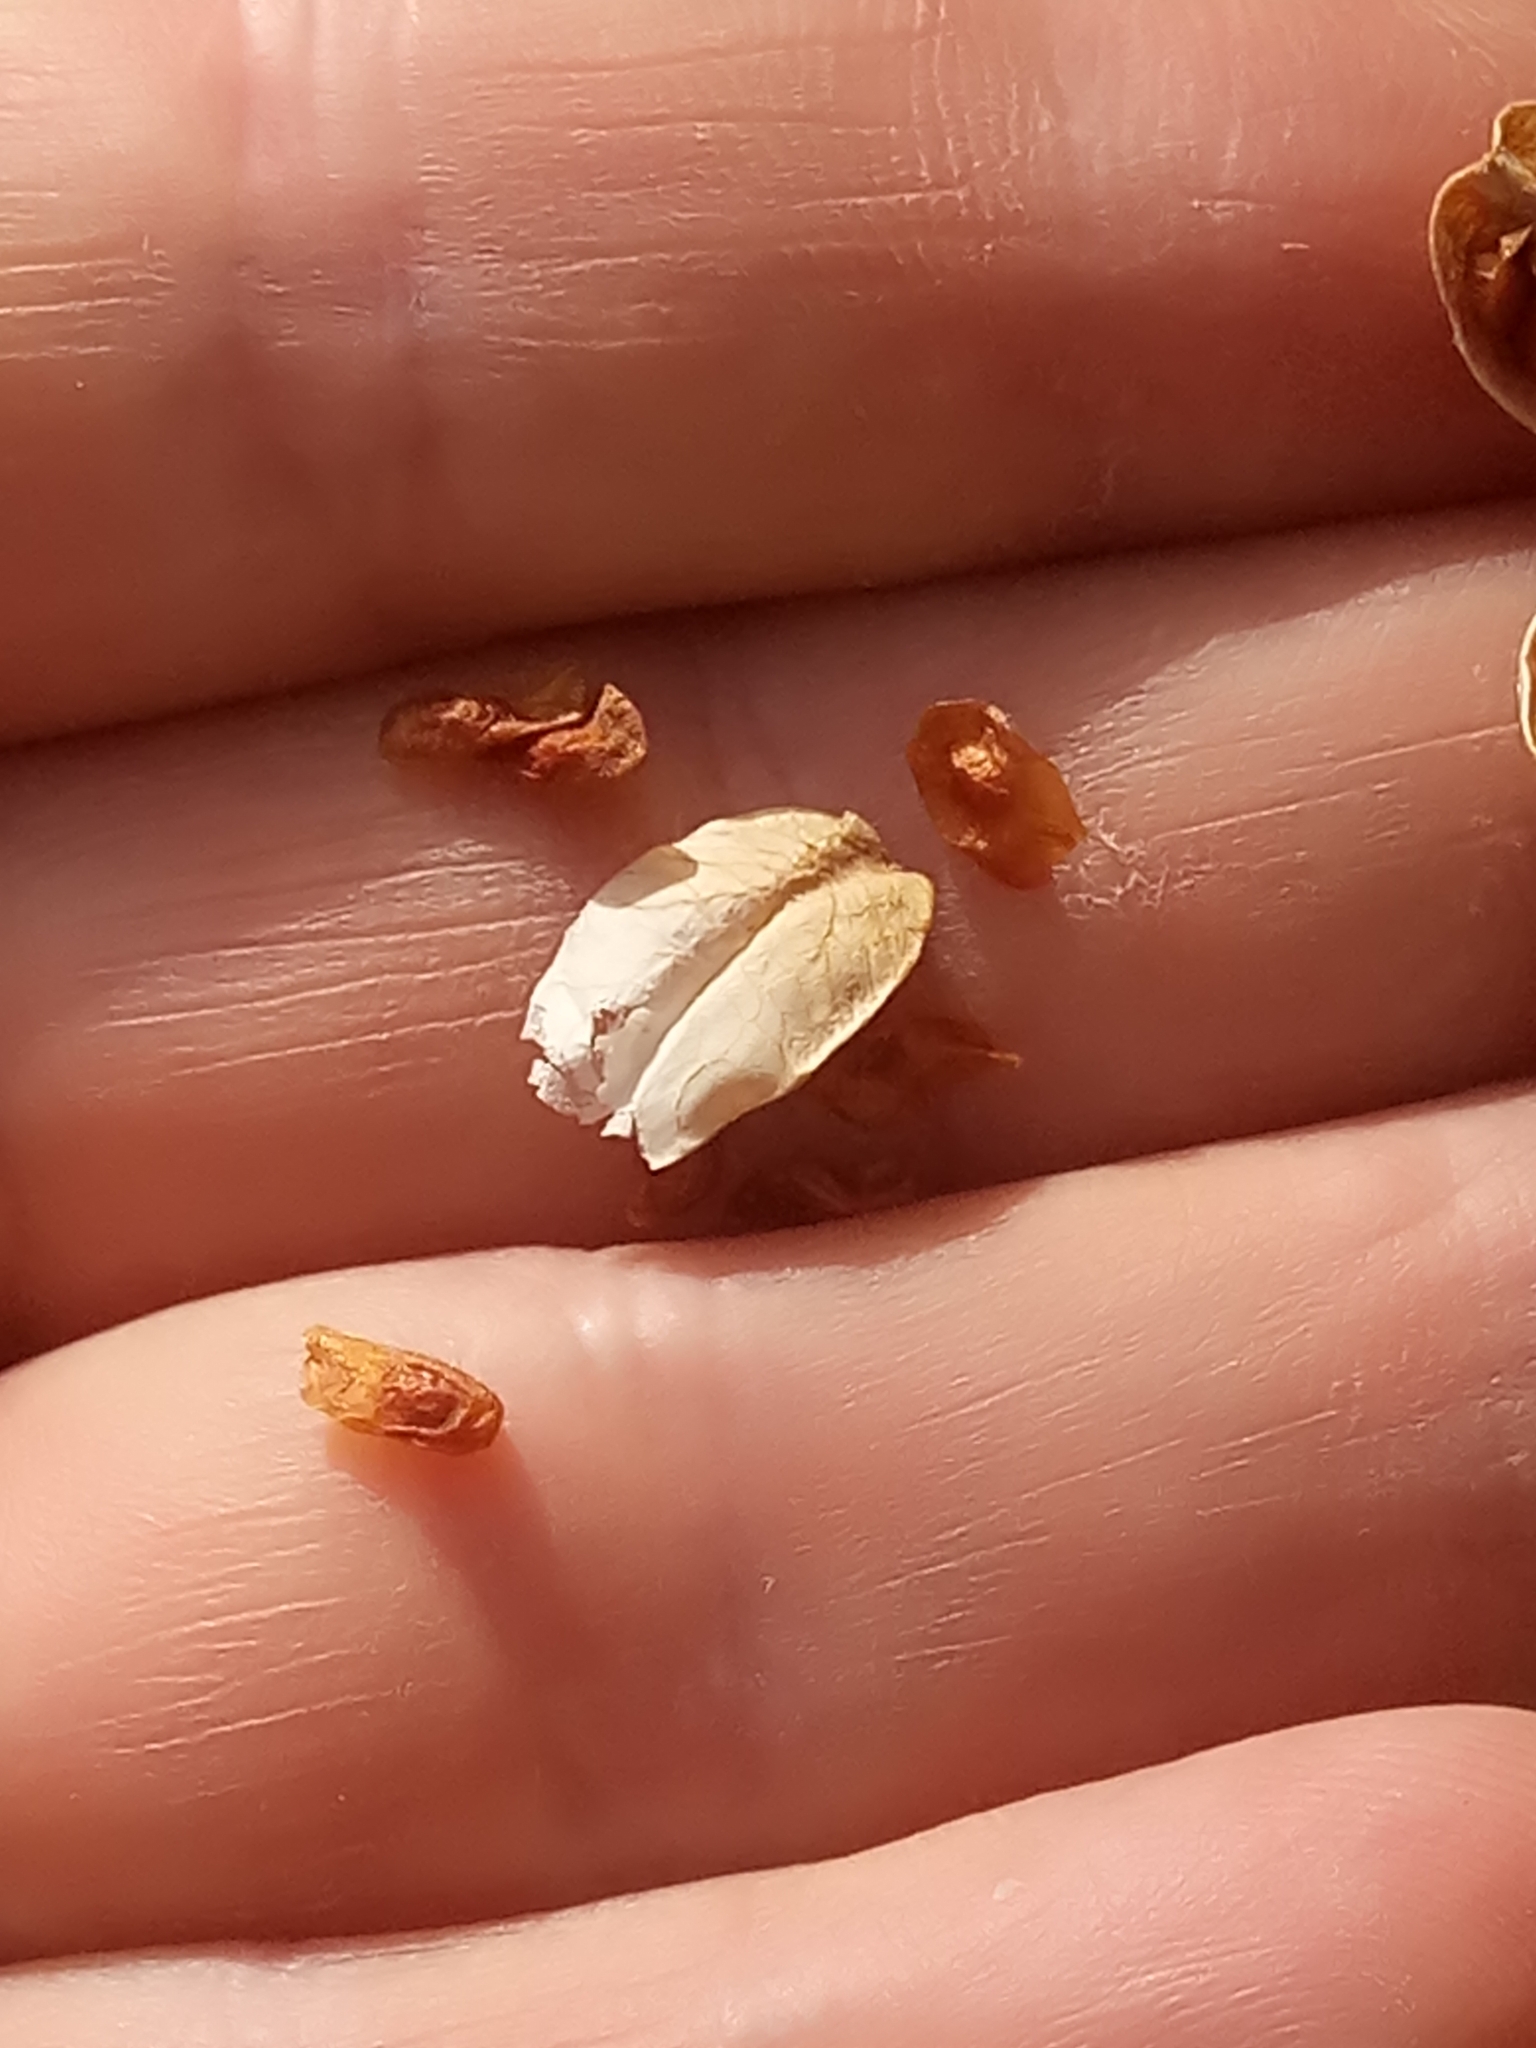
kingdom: Plantae
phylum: Tracheophyta
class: Liliopsida
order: Asparagales
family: Iridaceae
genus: Gladiolus
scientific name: Gladiolus dubius
